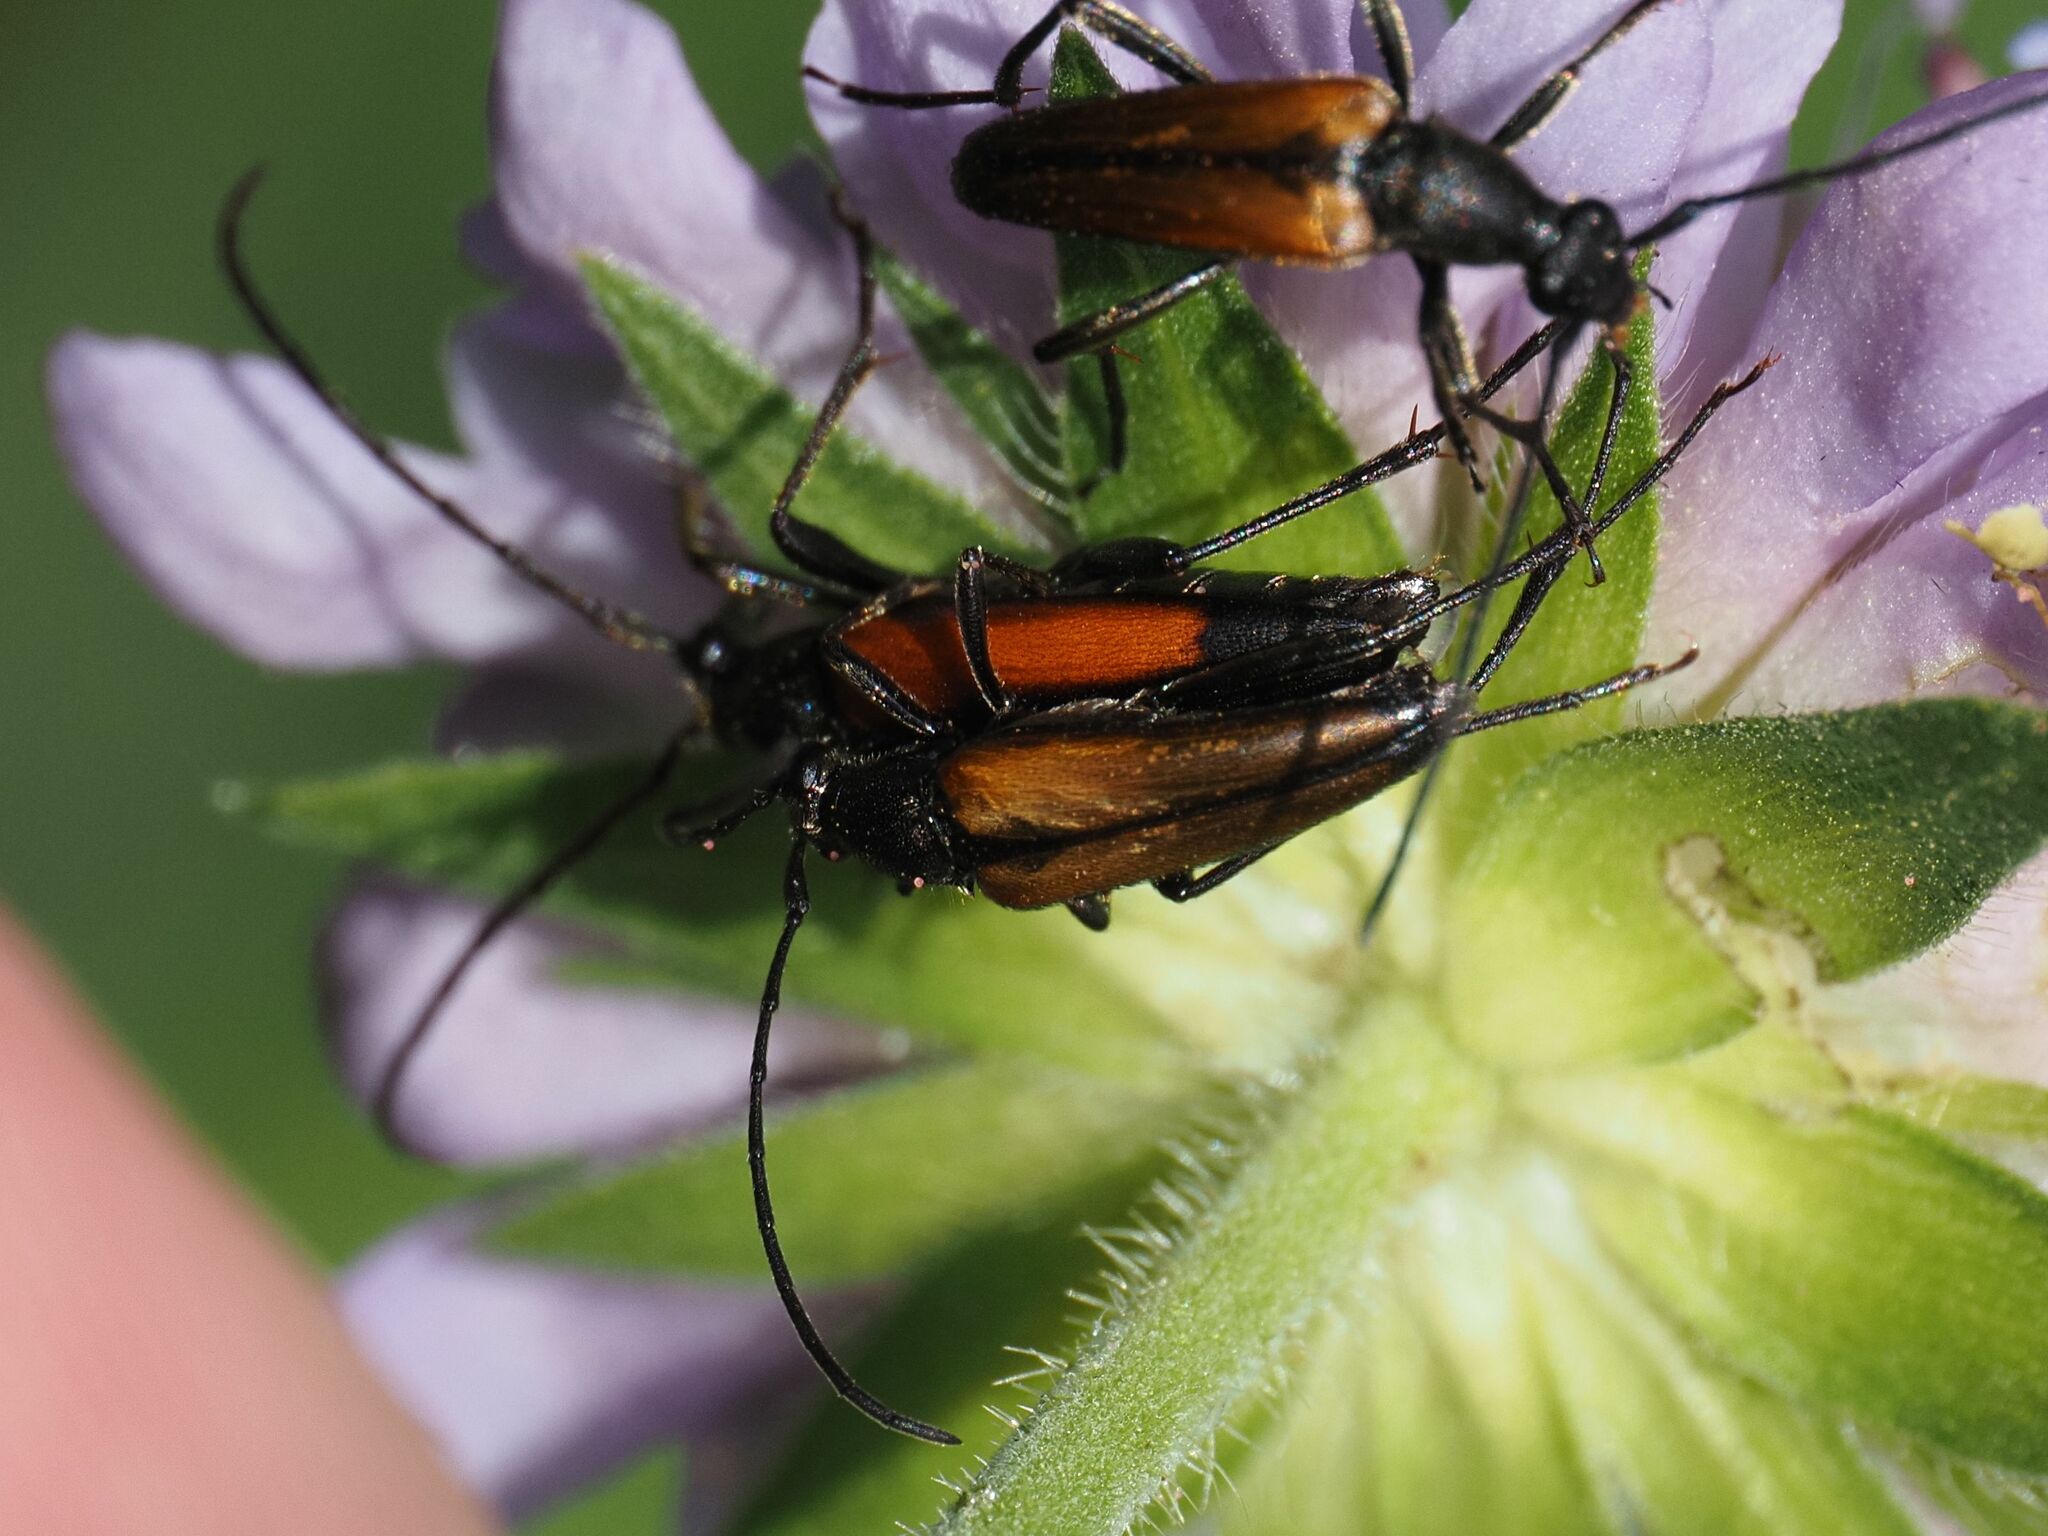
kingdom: Animalia
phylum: Arthropoda
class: Insecta
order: Coleoptera
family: Cerambycidae
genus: Stenurella
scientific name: Stenurella melanura
